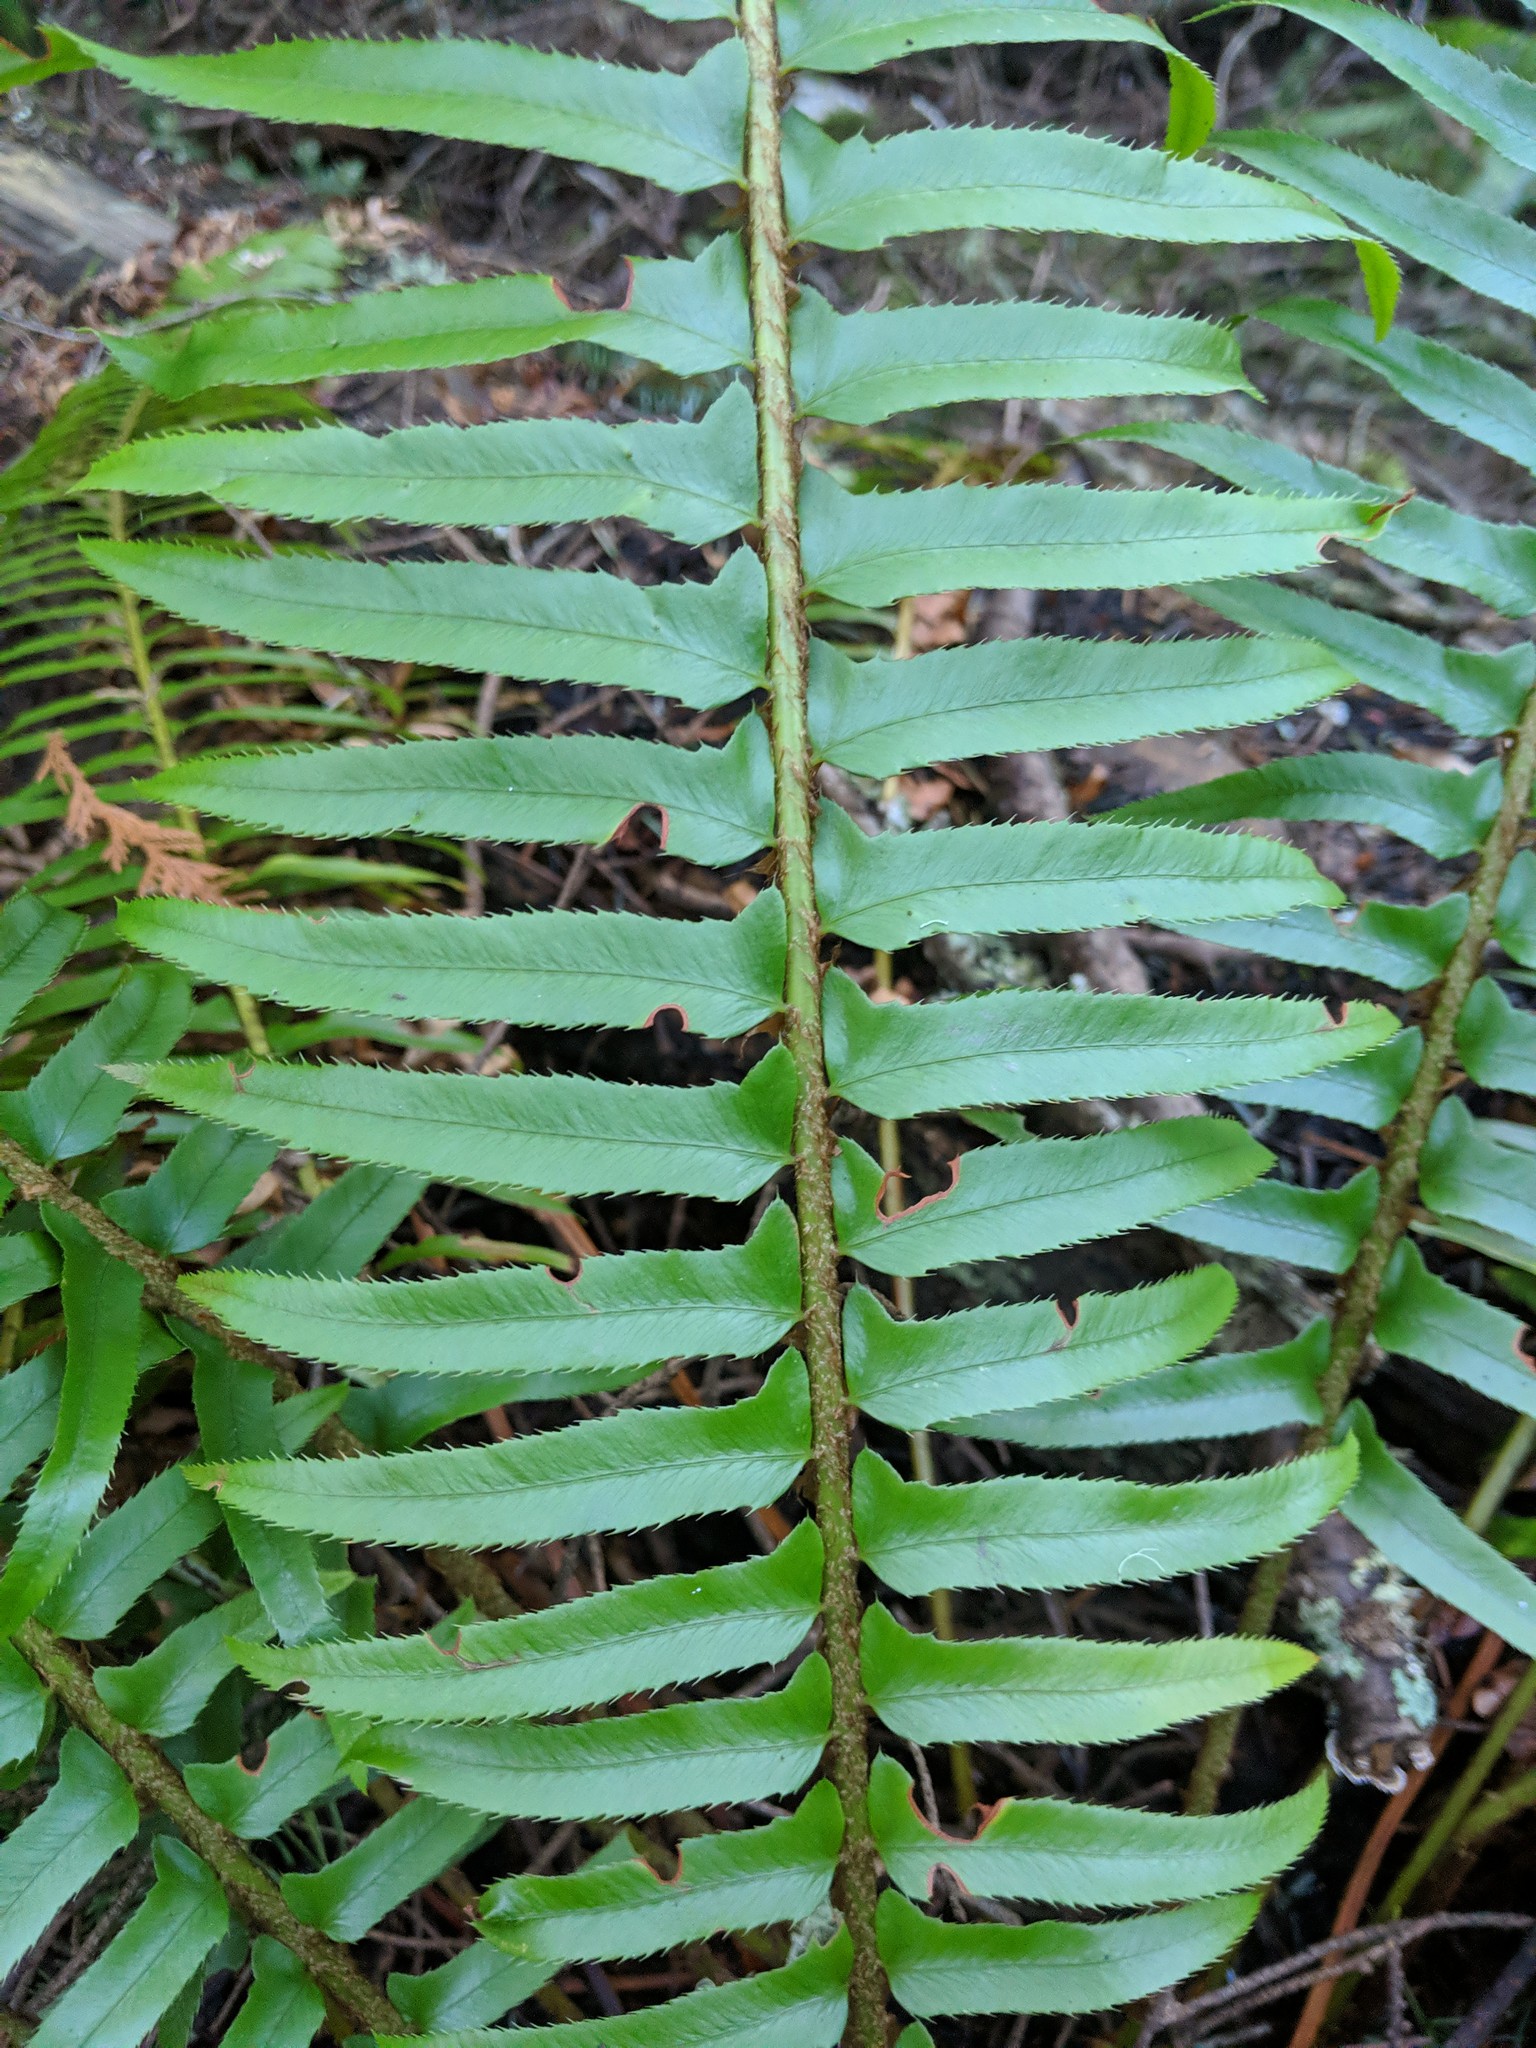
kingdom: Plantae
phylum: Tracheophyta
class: Polypodiopsida
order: Polypodiales
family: Dryopteridaceae
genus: Polystichum
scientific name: Polystichum munitum
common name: Western sword-fern
